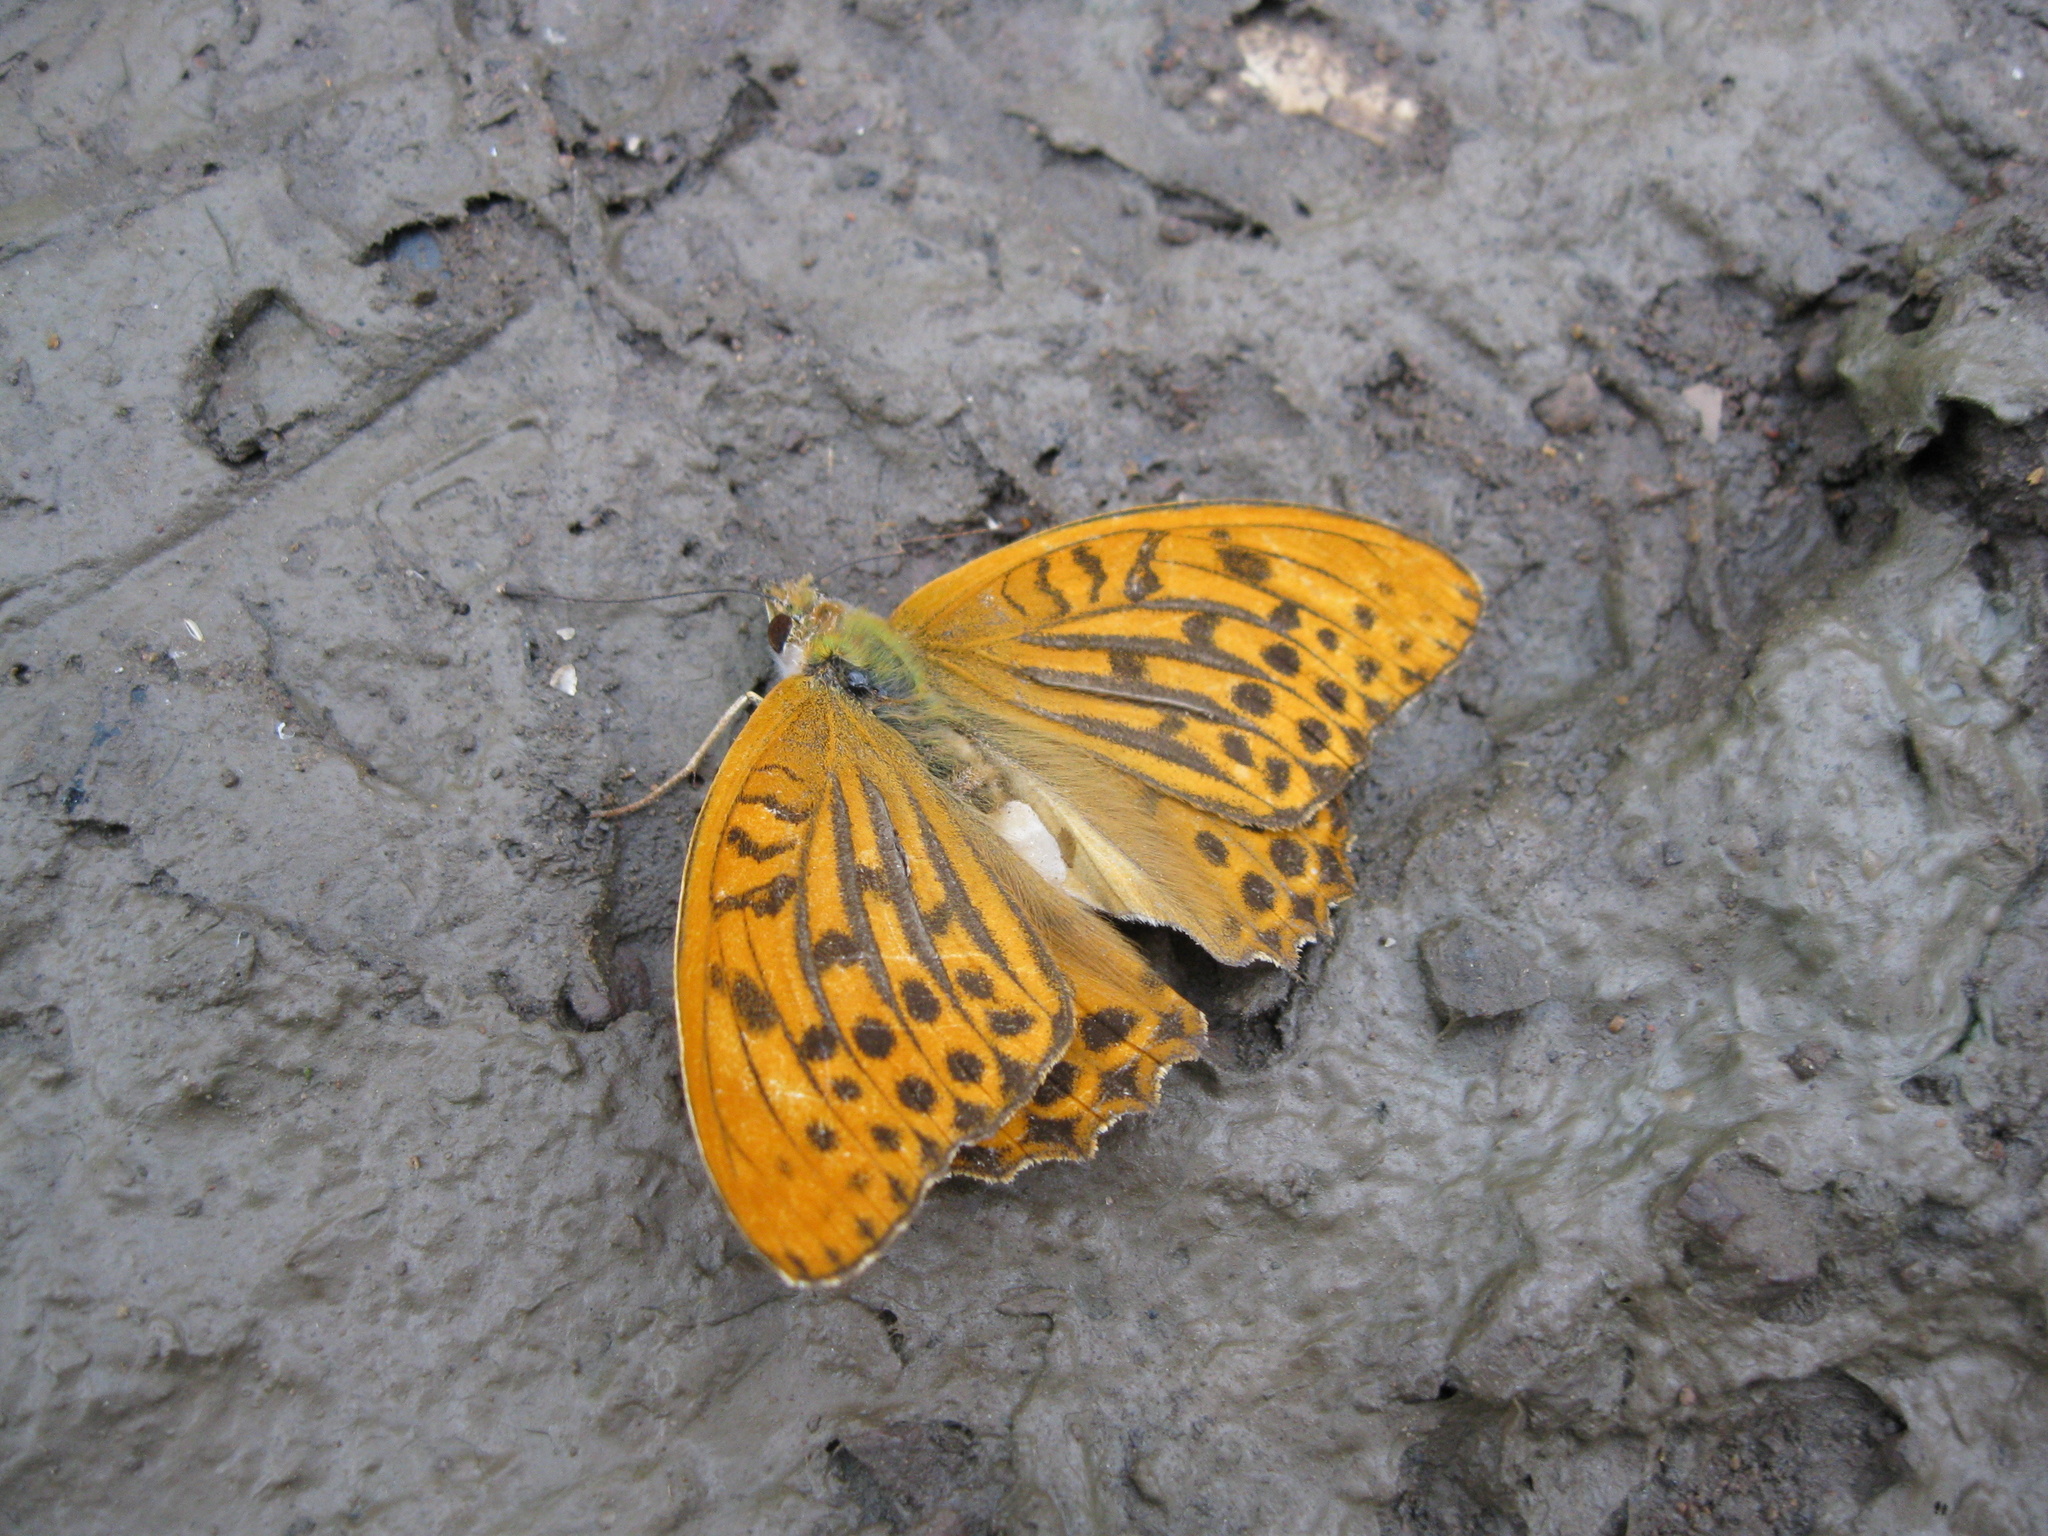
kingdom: Animalia
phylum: Arthropoda
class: Insecta
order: Lepidoptera
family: Nymphalidae
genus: Argynnis
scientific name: Argynnis paphia
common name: Silver-washed fritillary
